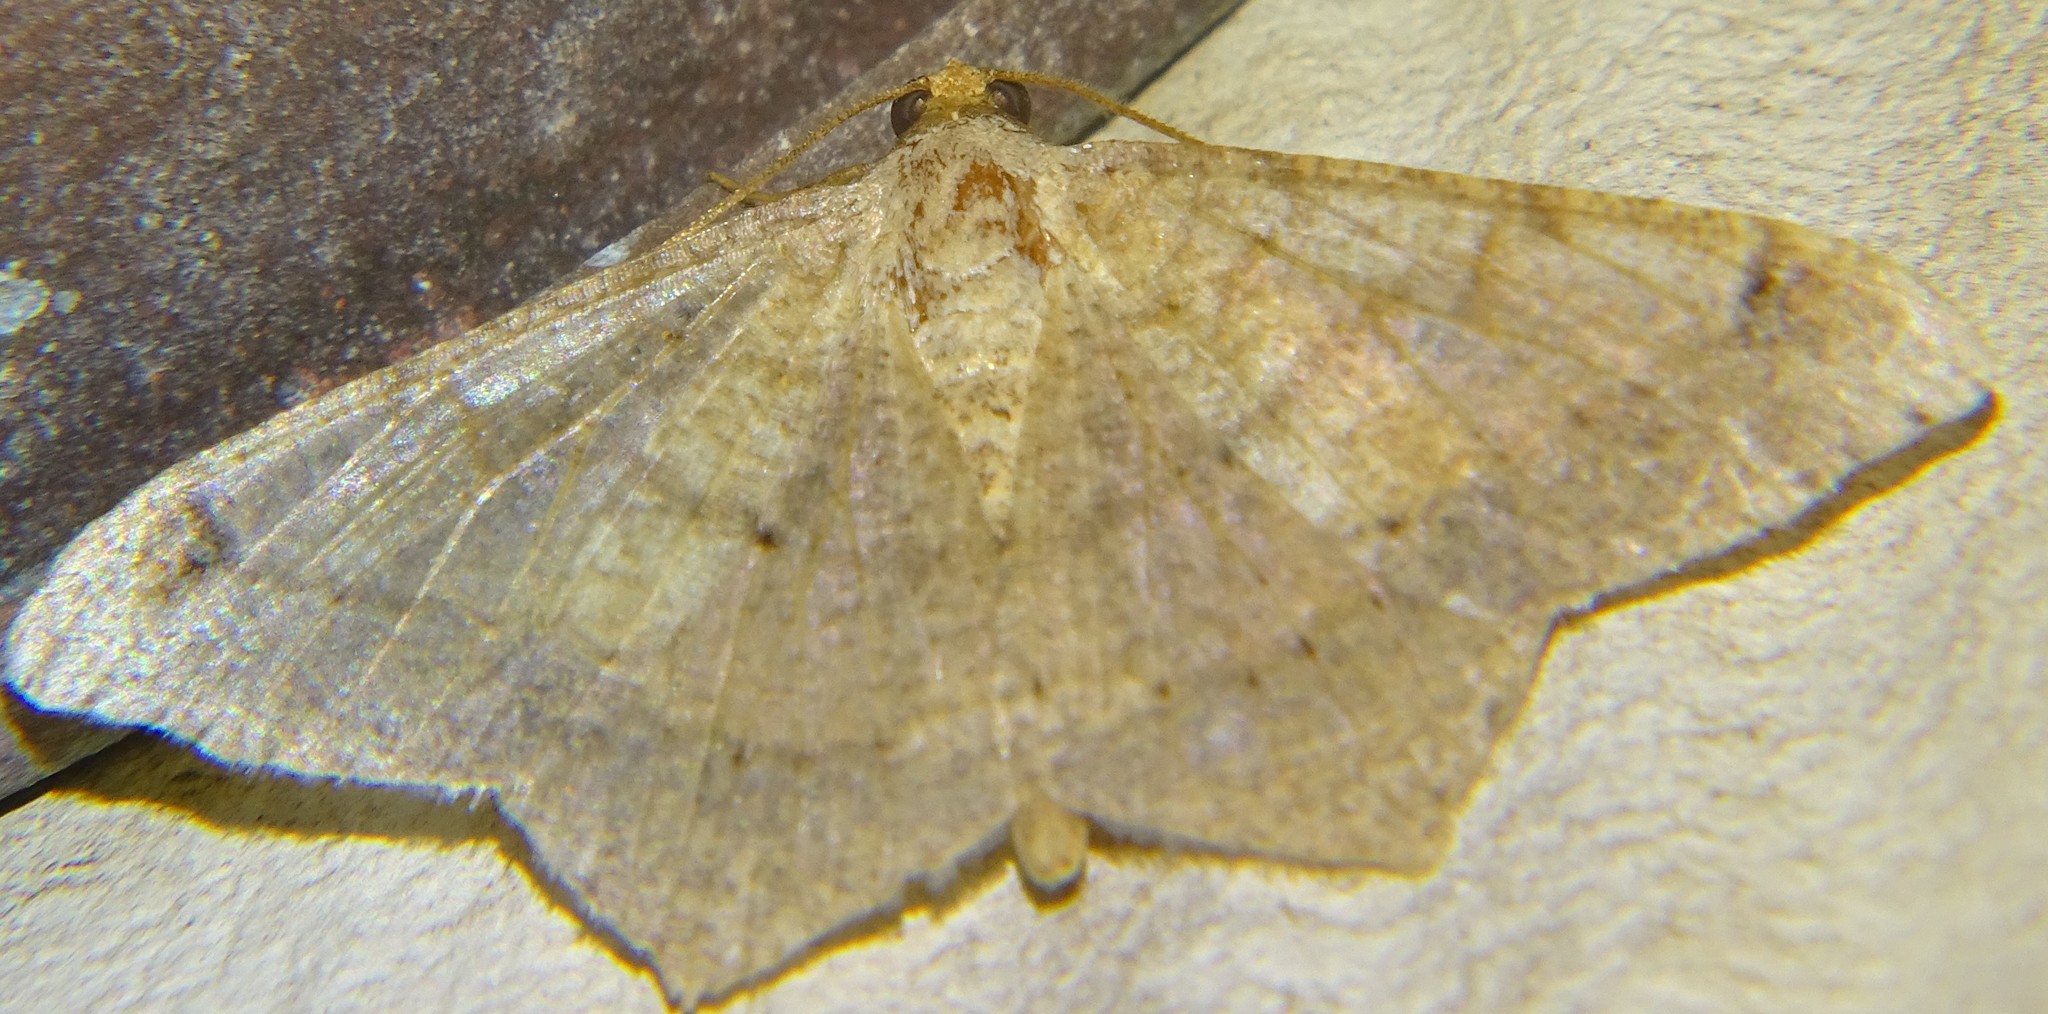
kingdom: Animalia
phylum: Arthropoda
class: Insecta
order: Lepidoptera
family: Geometridae
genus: Macaria
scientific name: Macaria abydata
